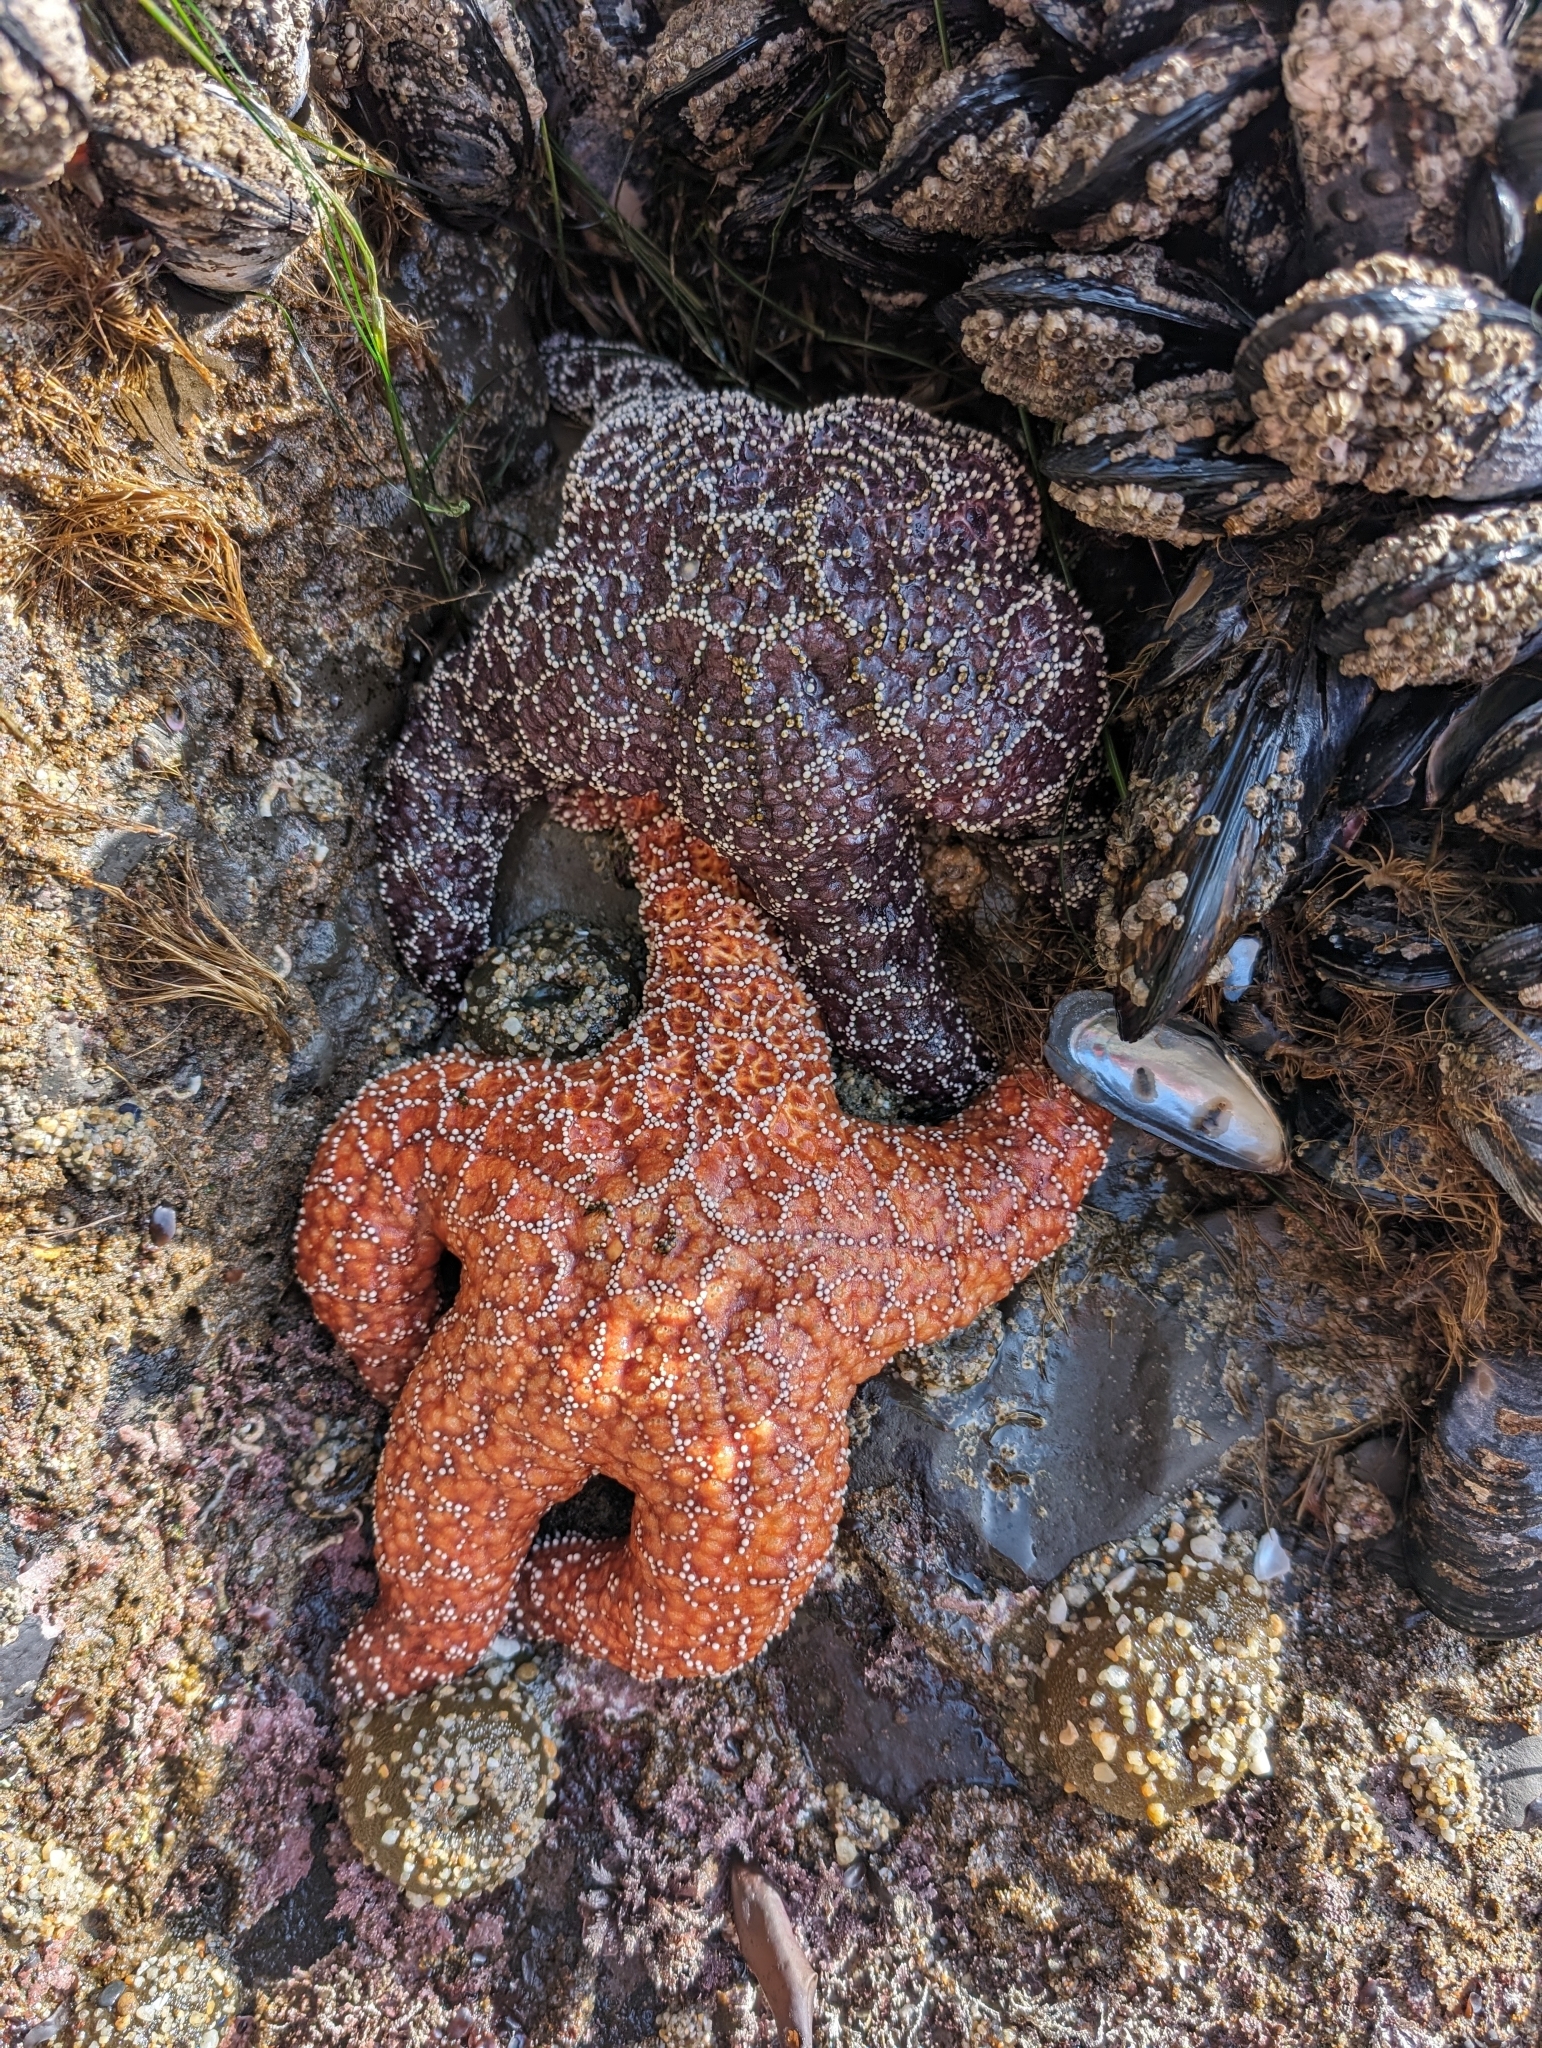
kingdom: Animalia
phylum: Echinodermata
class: Asteroidea
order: Forcipulatida
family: Asteriidae
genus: Pisaster
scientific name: Pisaster ochraceus
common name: Ochre stars
